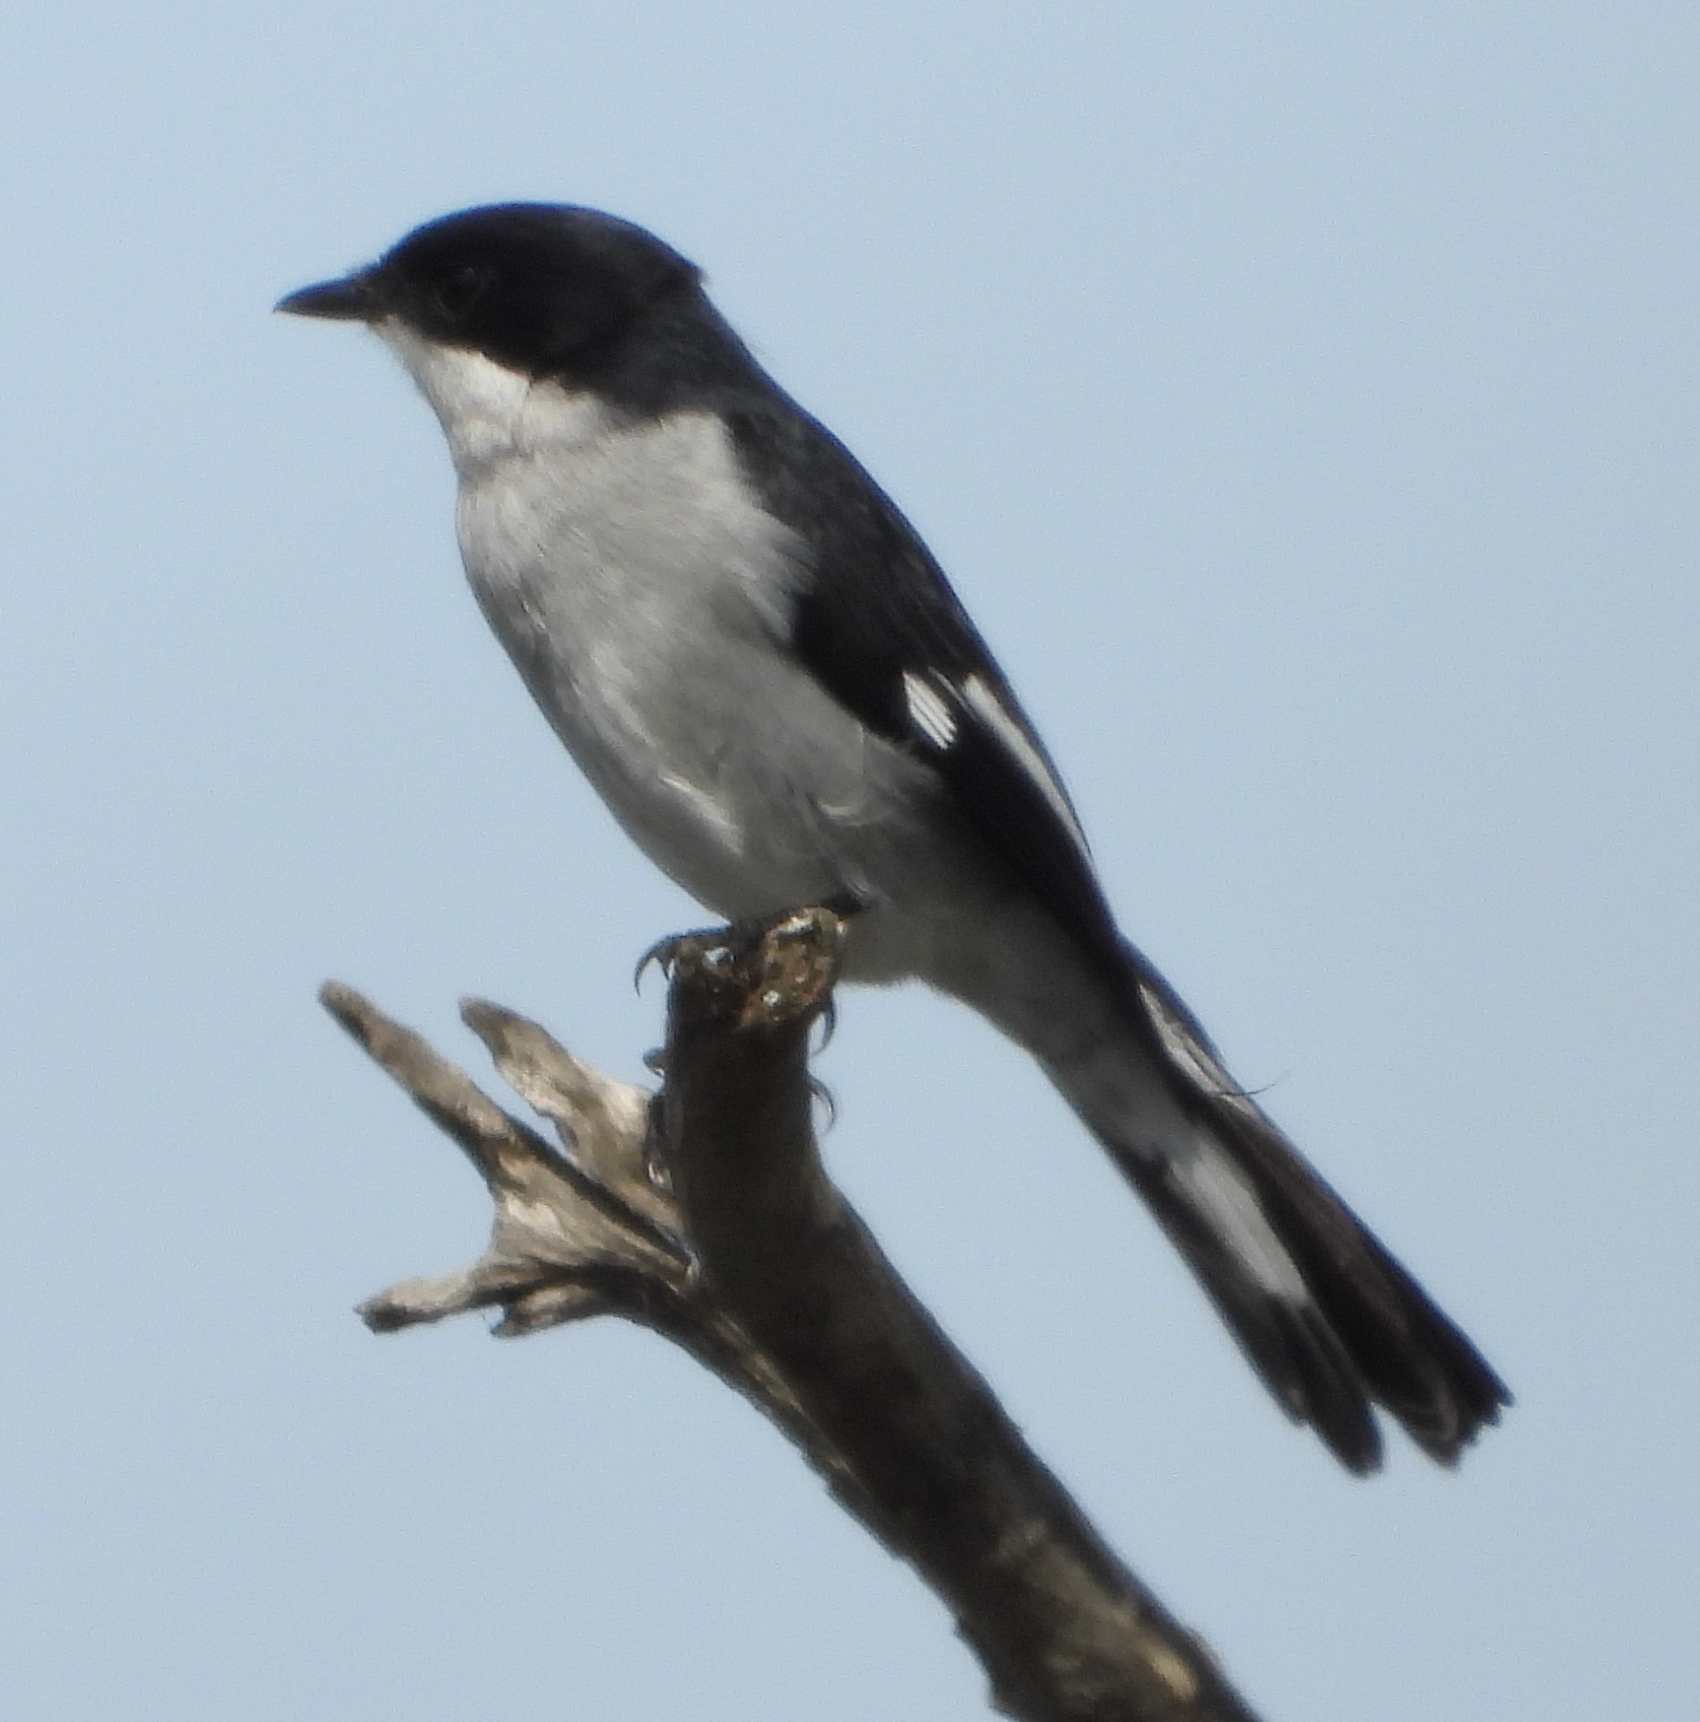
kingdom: Animalia
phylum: Chordata
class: Aves
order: Passeriformes
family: Muscicapidae
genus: Sigelus
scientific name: Sigelus silens
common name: Fiscal flycatcher
